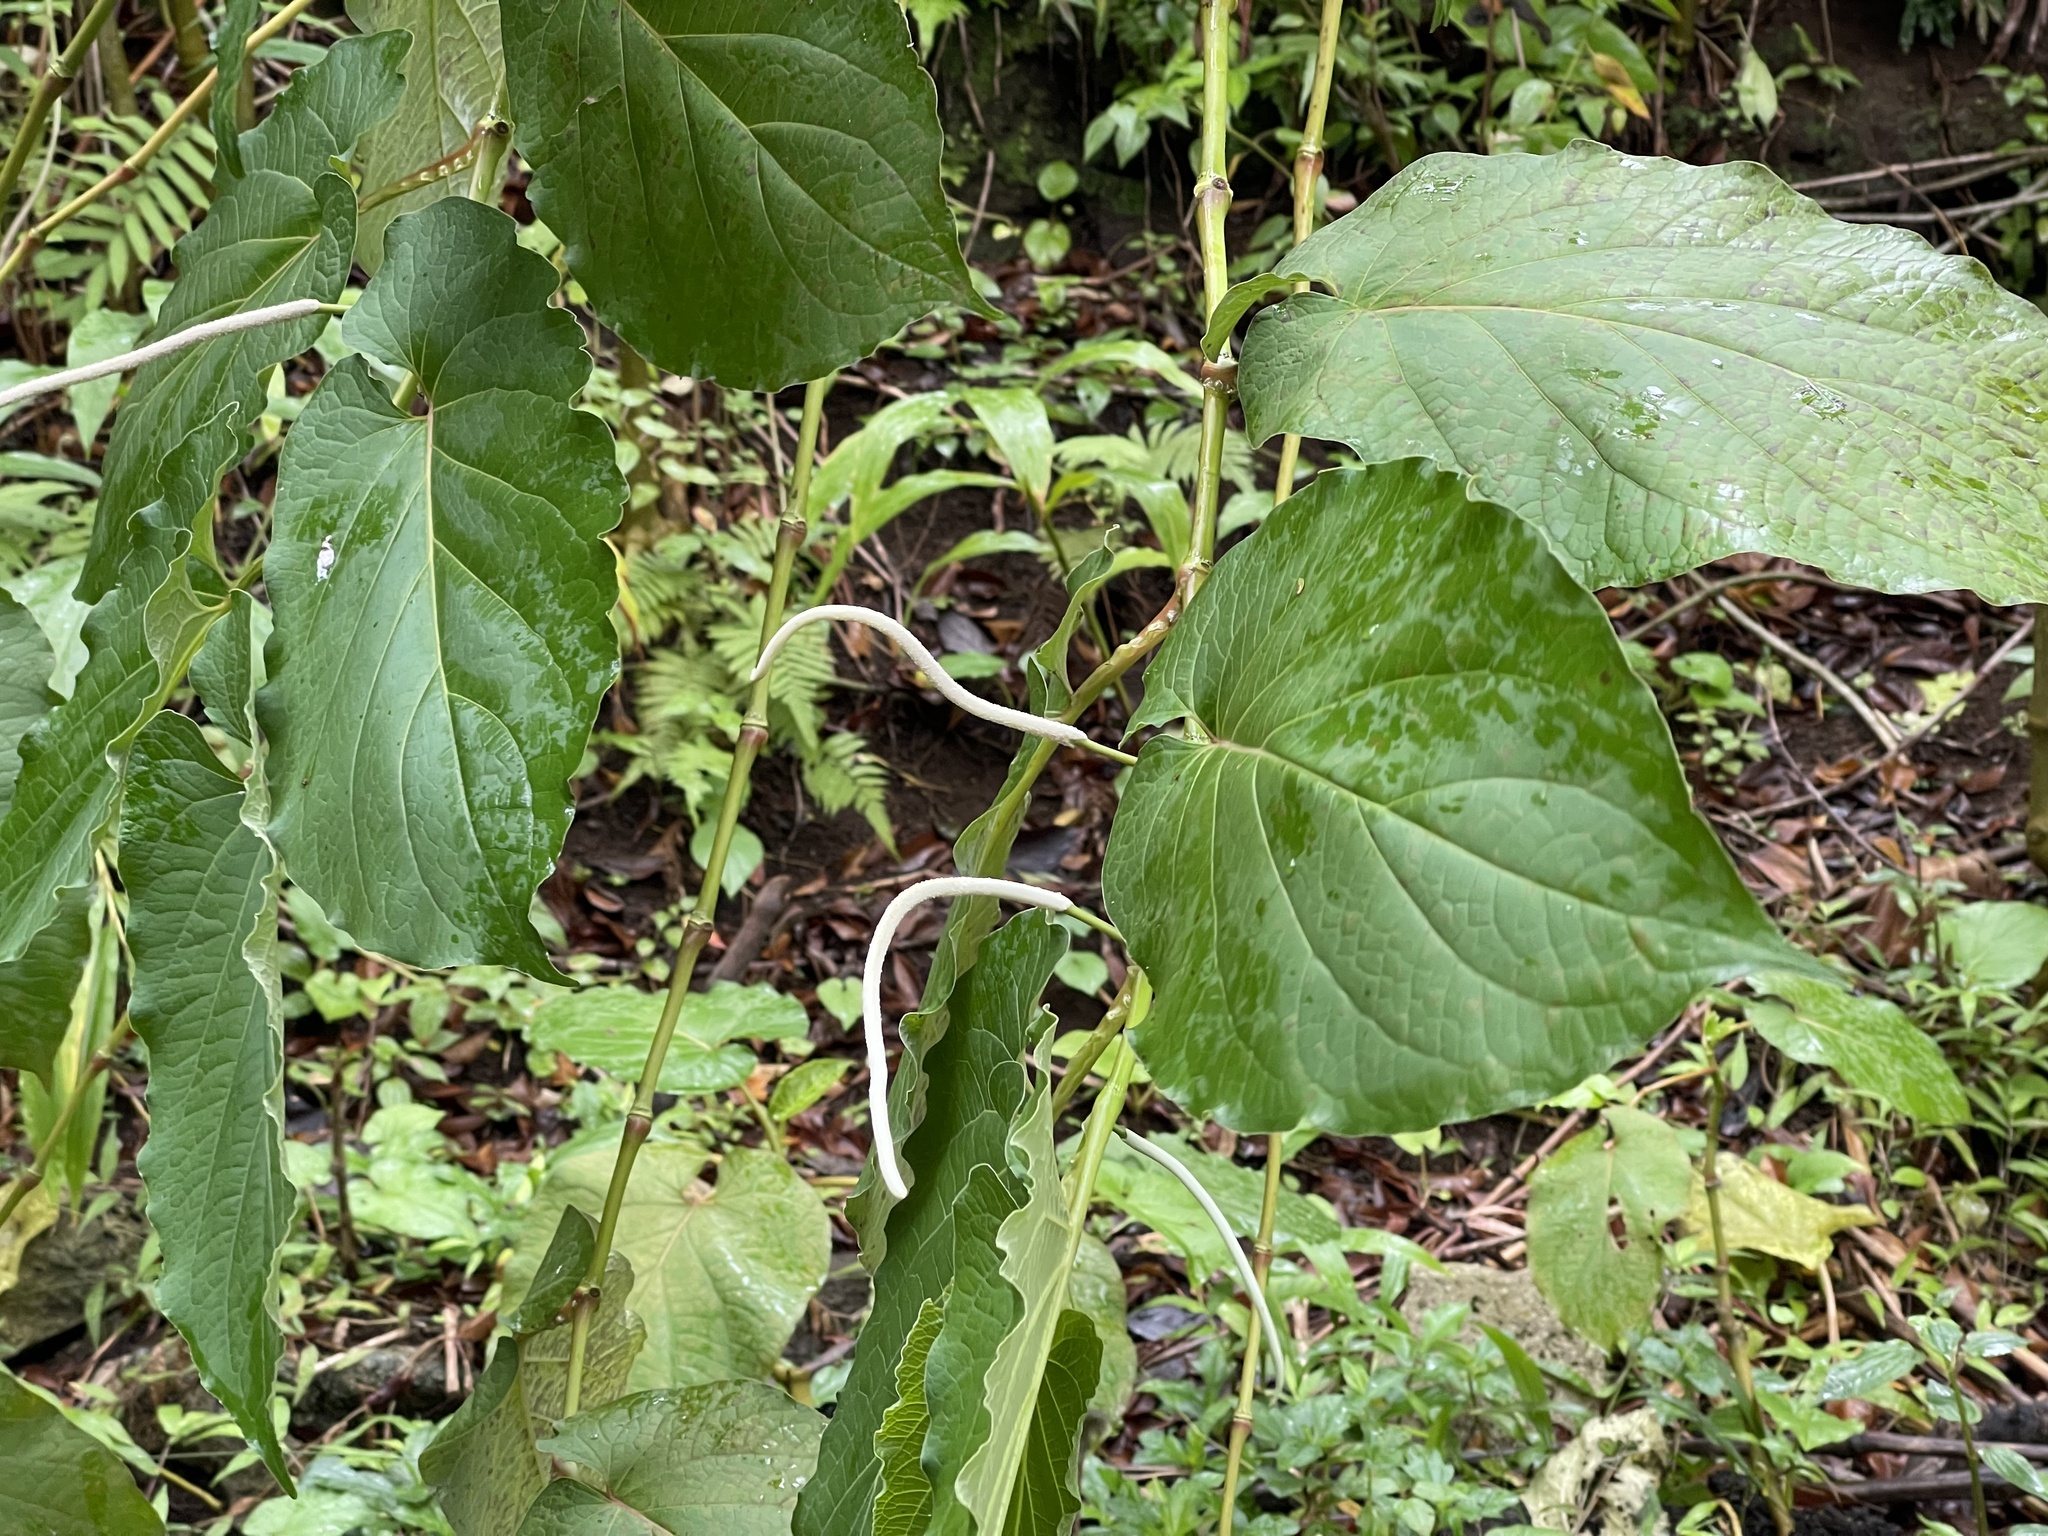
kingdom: Plantae
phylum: Tracheophyta
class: Magnoliopsida
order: Piperales
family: Piperaceae
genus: Piper
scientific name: Piper auritum
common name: Vera cruz pepper
